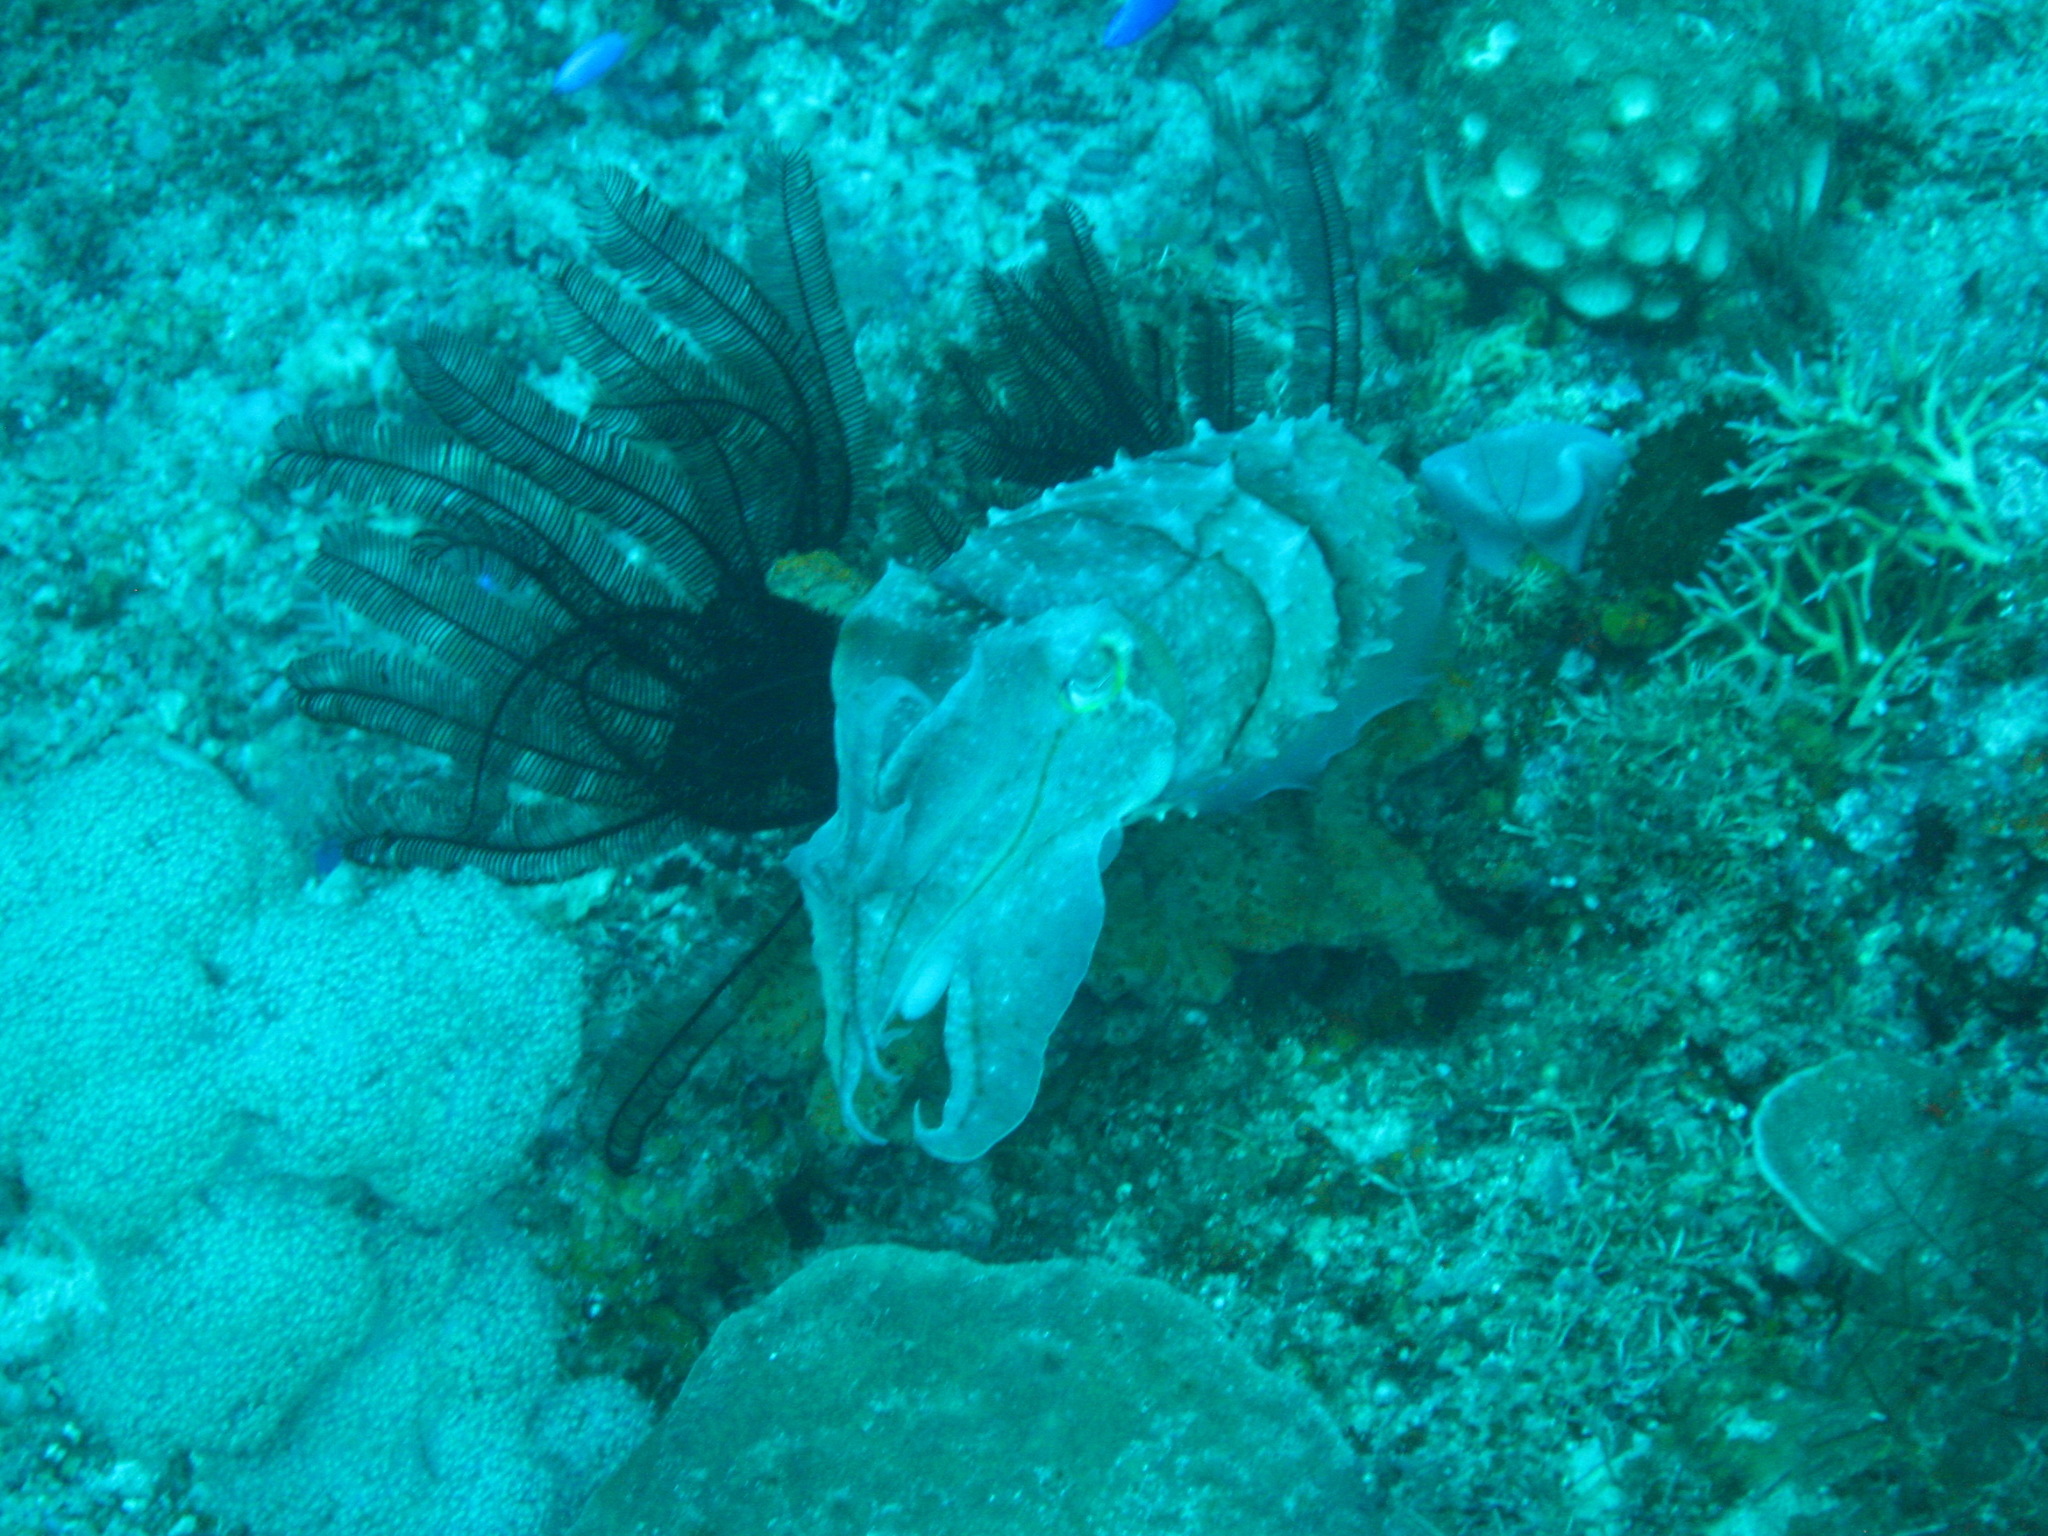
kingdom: Animalia
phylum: Mollusca
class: Cephalopoda
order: Sepiida
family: Sepiidae
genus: Ascarosepion
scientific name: Ascarosepion latimanus
